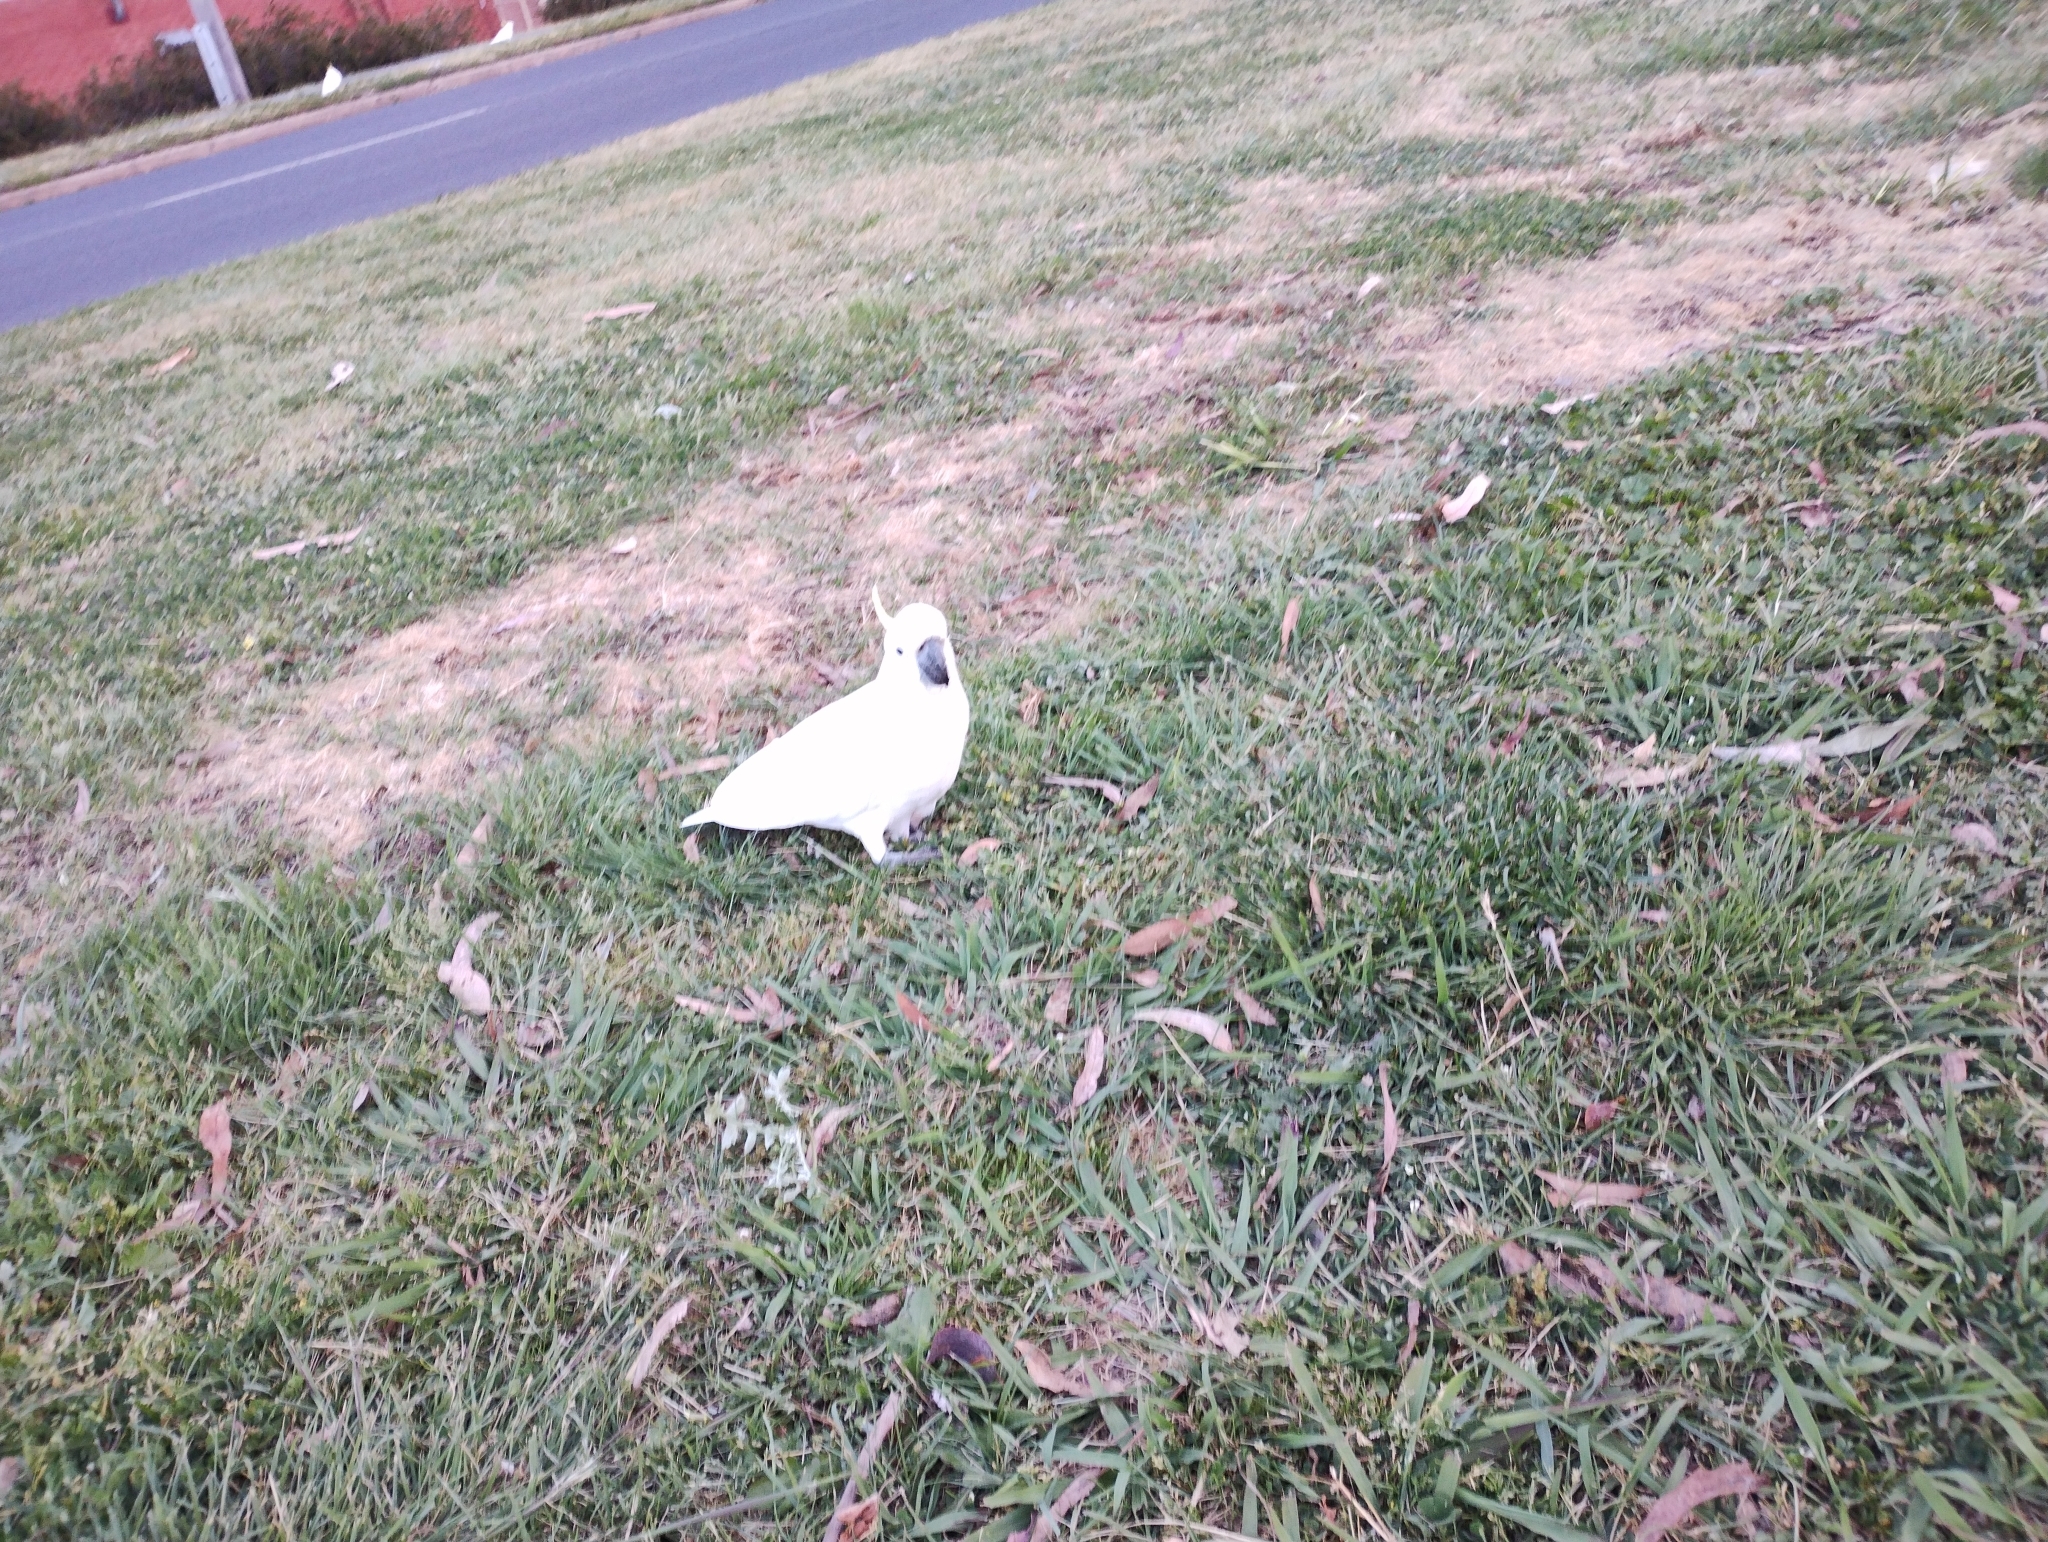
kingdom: Animalia
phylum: Chordata
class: Aves
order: Psittaciformes
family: Psittacidae
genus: Cacatua
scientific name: Cacatua galerita
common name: Sulphur-crested cockatoo
